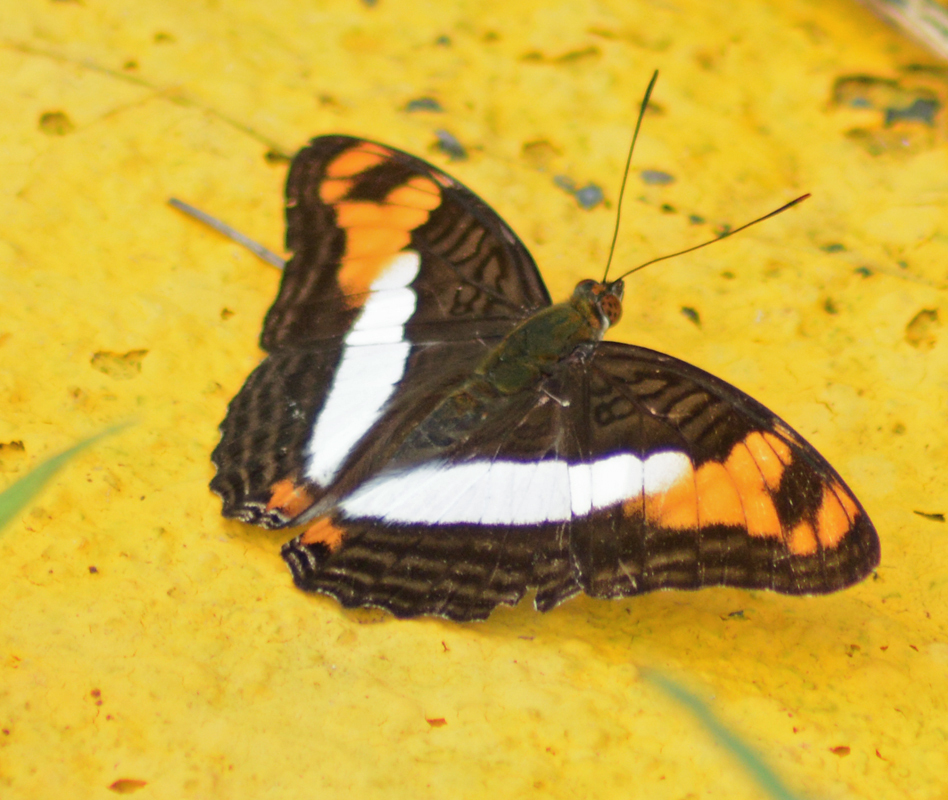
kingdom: Animalia
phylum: Arthropoda
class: Insecta
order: Lepidoptera
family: Nymphalidae
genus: Limenitis
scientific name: Limenitis phylaca
